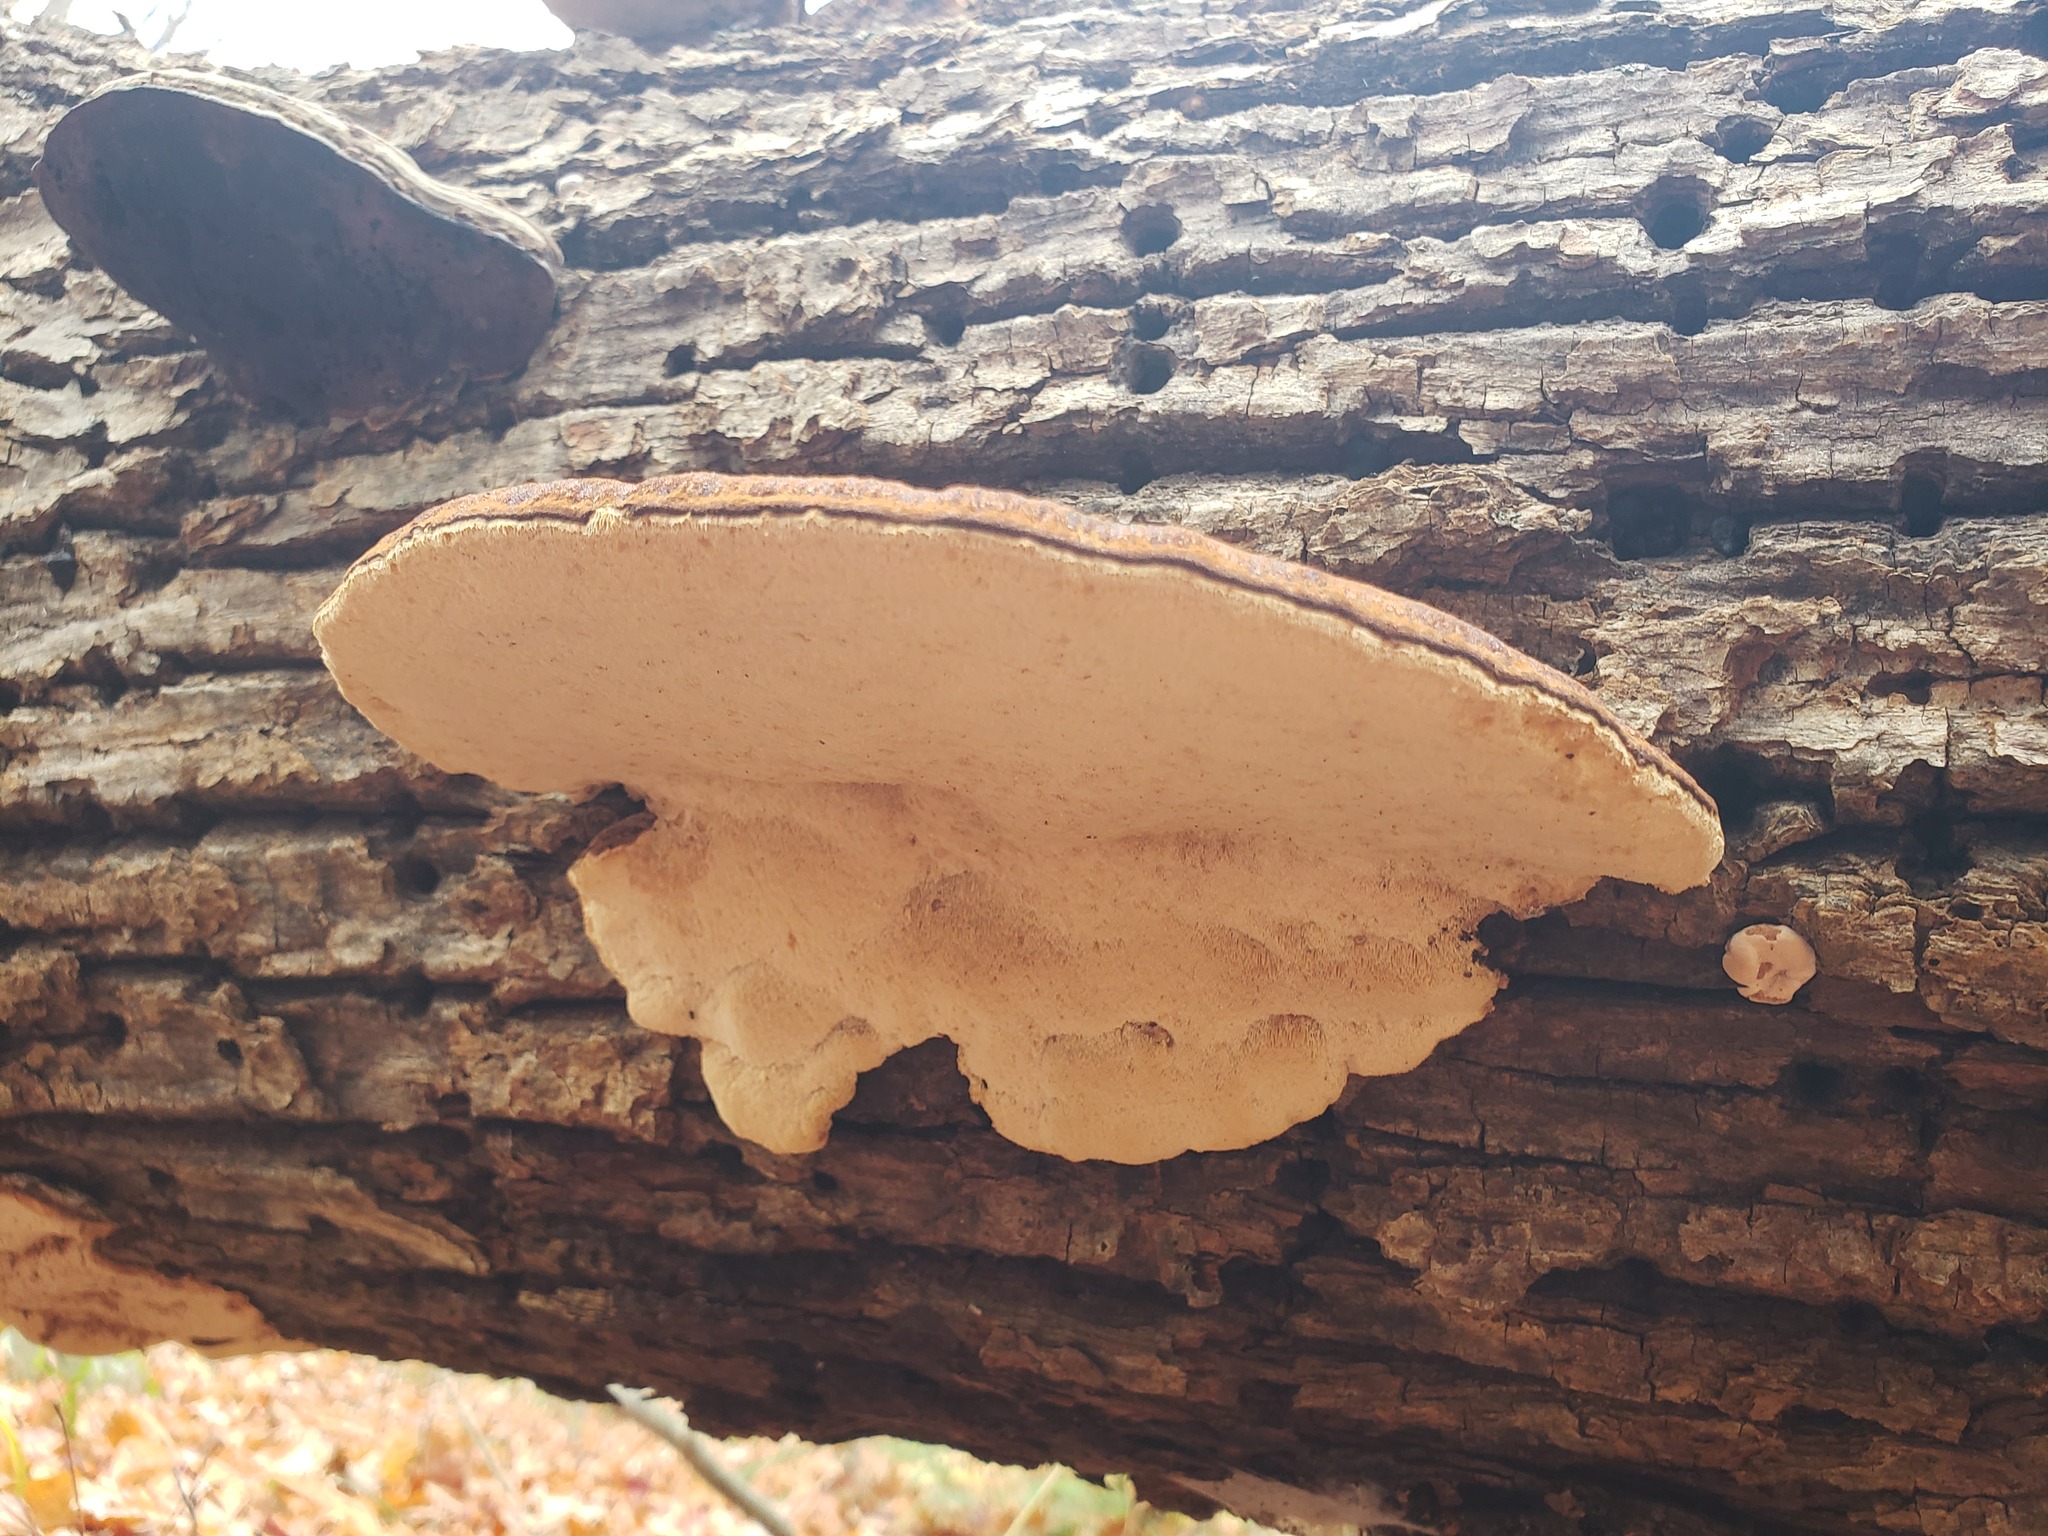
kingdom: Fungi
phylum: Basidiomycota
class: Agaricomycetes
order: Polyporales
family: Ischnodermataceae
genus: Ischnoderma
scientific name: Ischnoderma resinosum
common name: Resinous polypore
